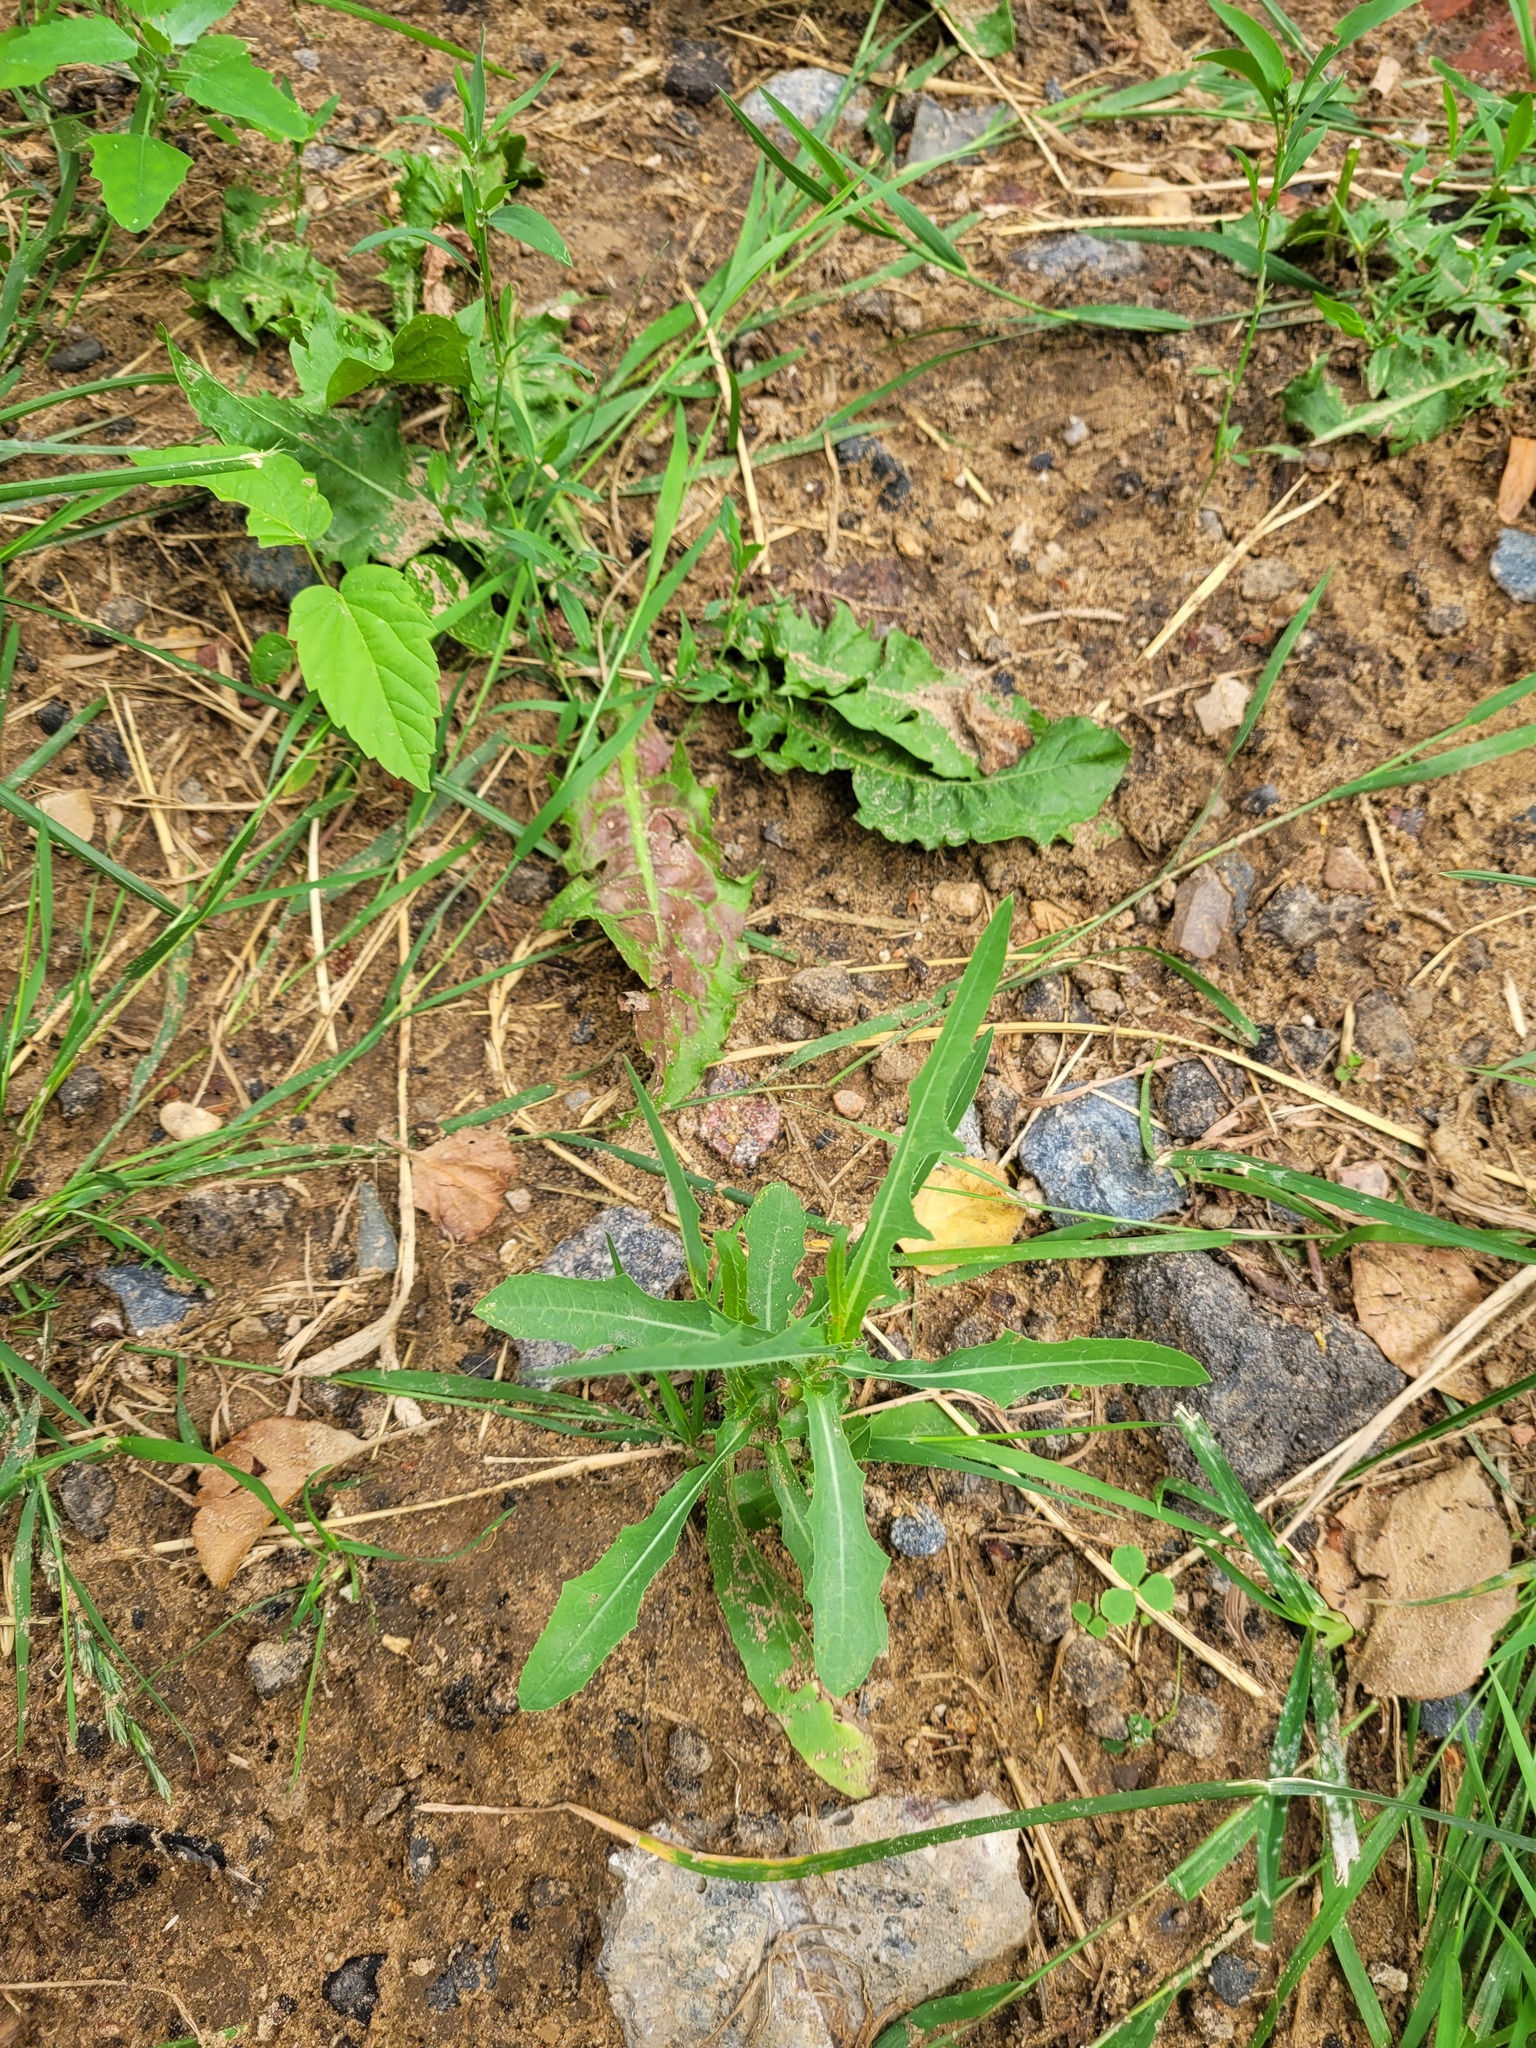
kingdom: Plantae
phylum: Tracheophyta
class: Magnoliopsida
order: Asterales
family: Asteraceae
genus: Lactuca
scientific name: Lactuca serriola
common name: Prickly lettuce
